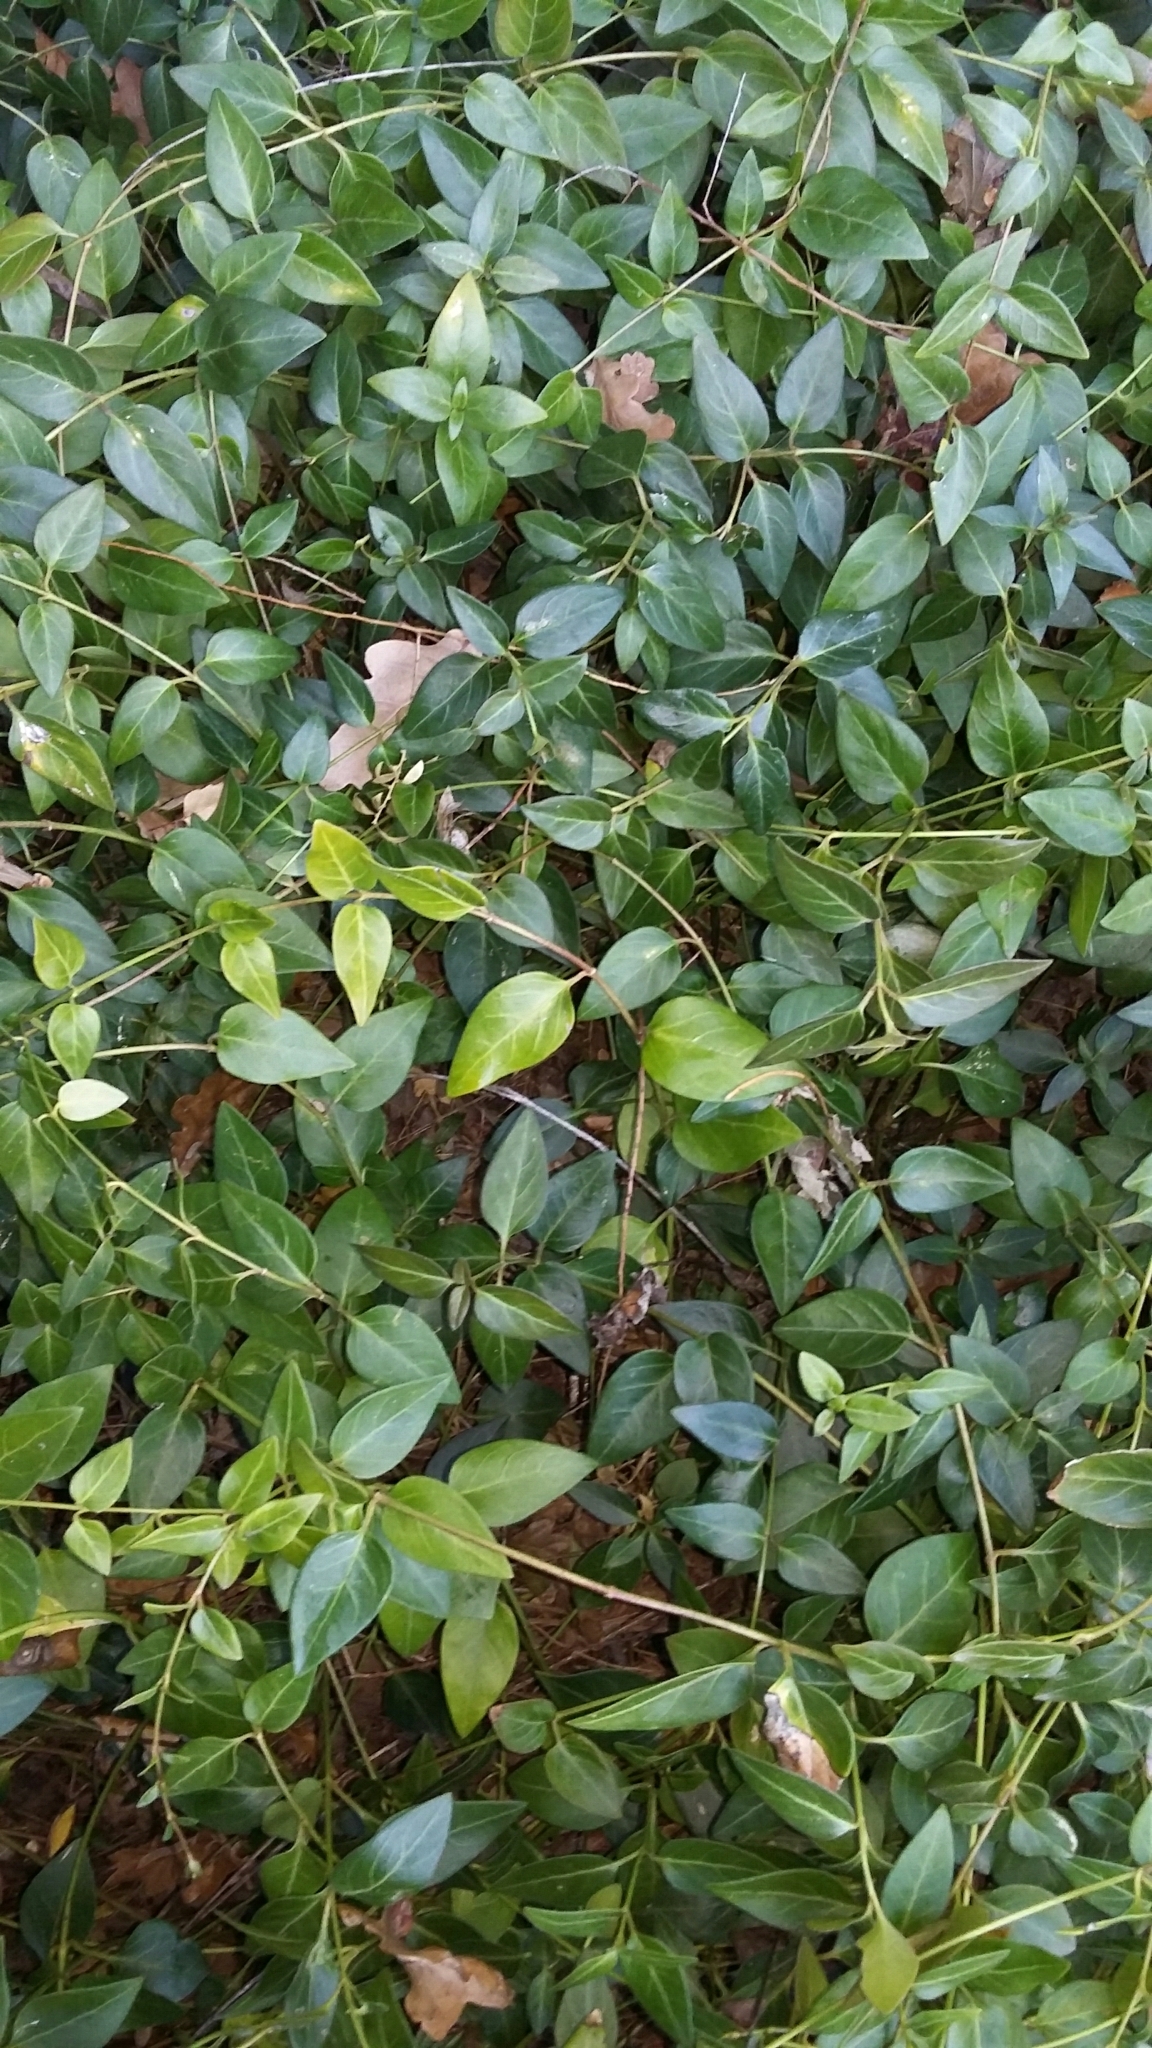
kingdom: Plantae
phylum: Tracheophyta
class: Magnoliopsida
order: Gentianales
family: Apocynaceae
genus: Vinca
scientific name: Vinca major
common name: Greater periwinkle
